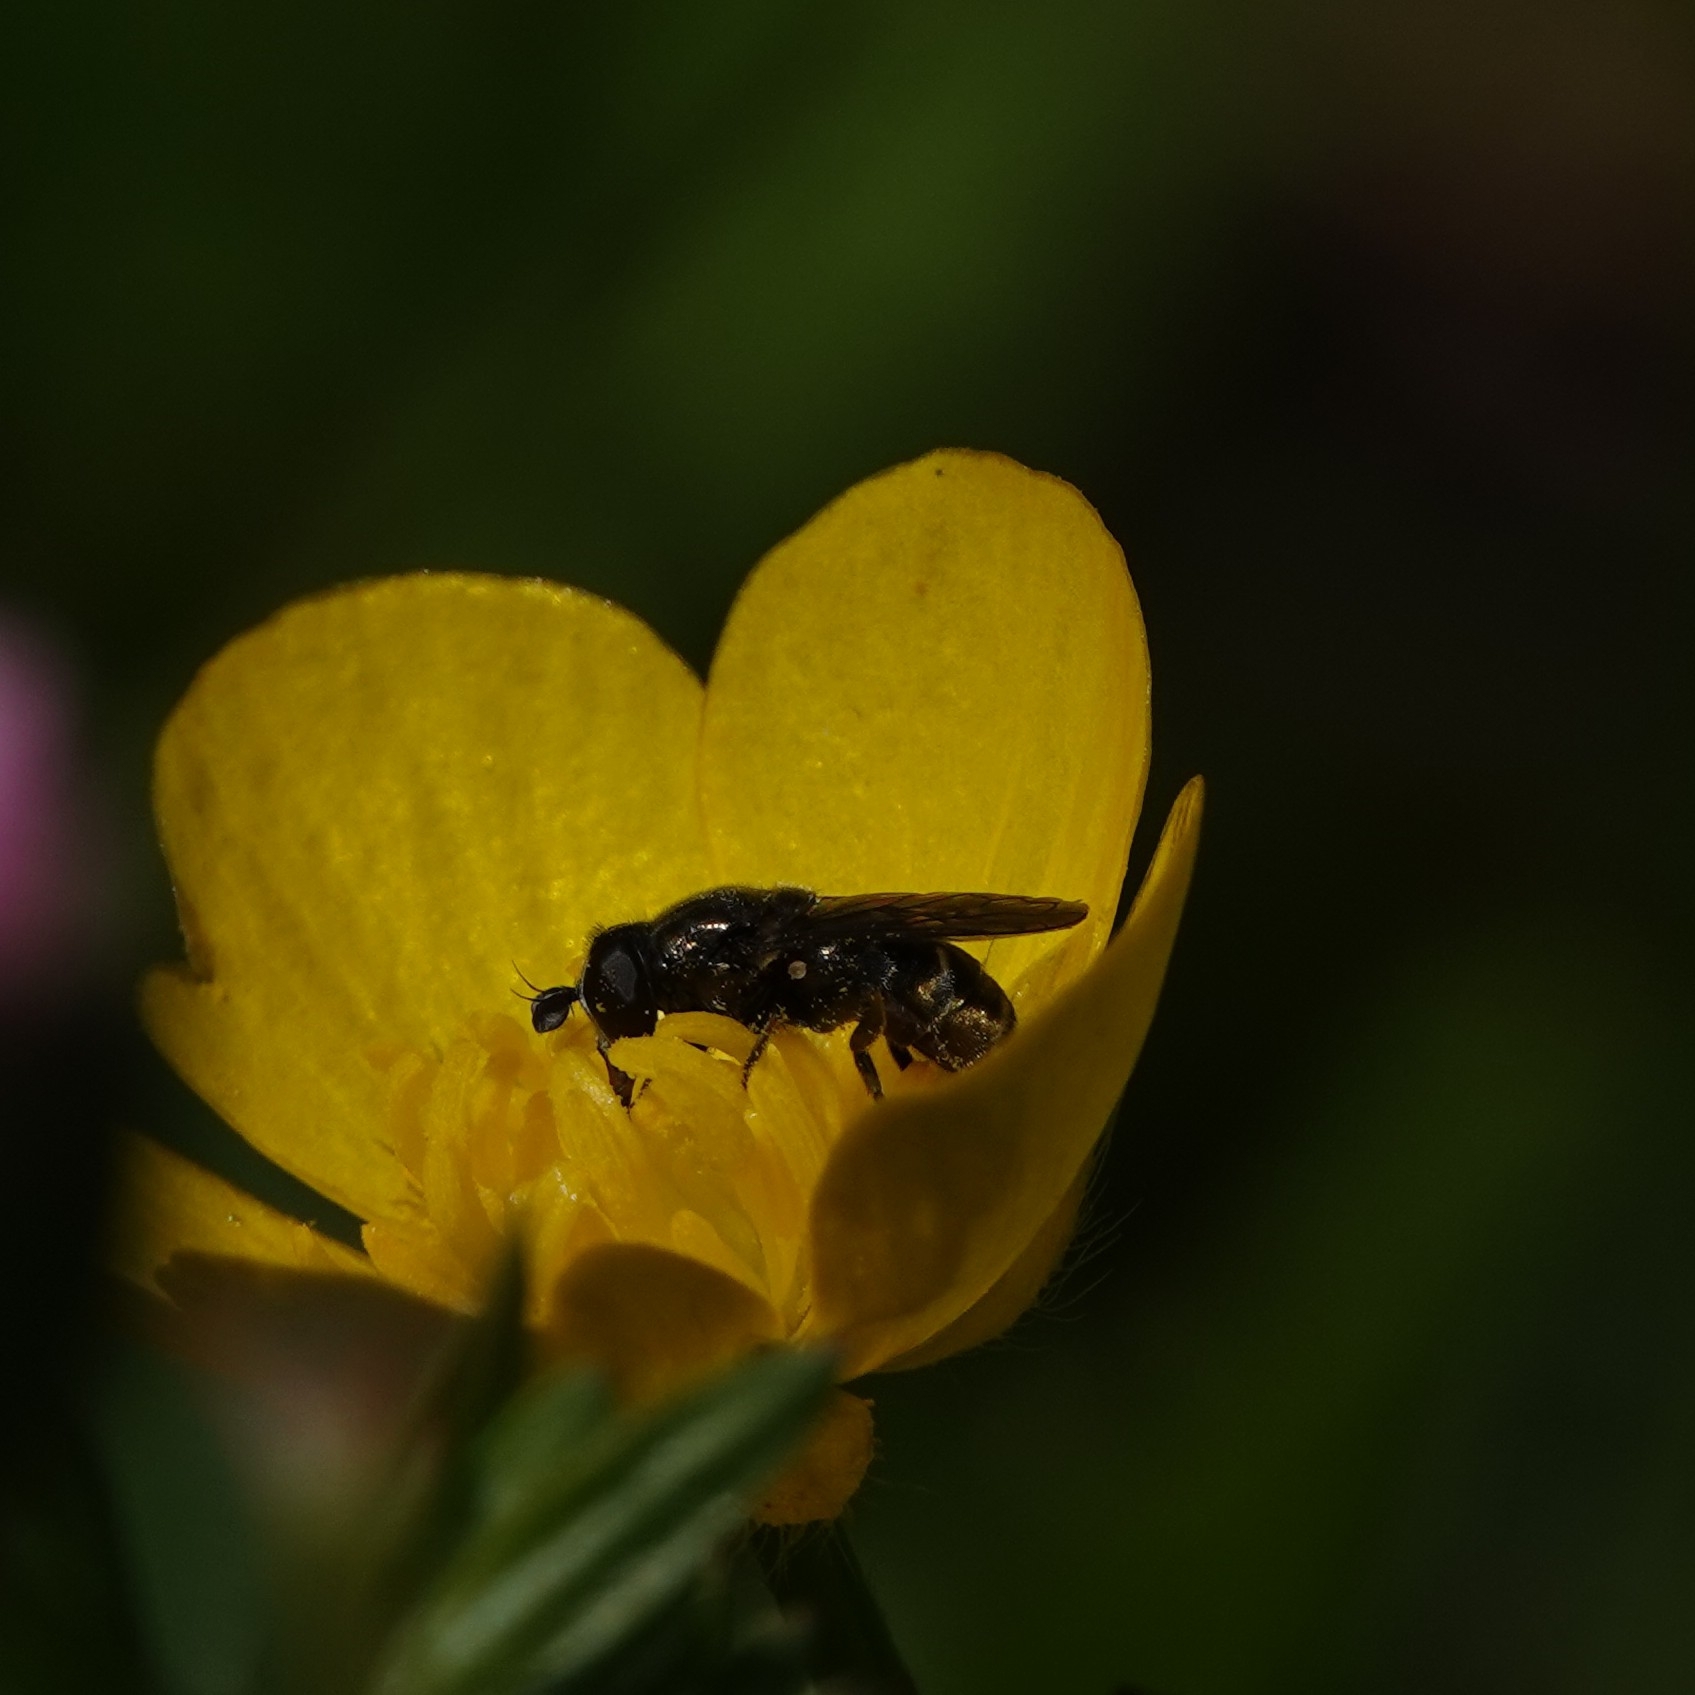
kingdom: Animalia
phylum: Arthropoda
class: Insecta
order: Diptera
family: Syrphidae
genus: Eumerus
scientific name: Eumerus
